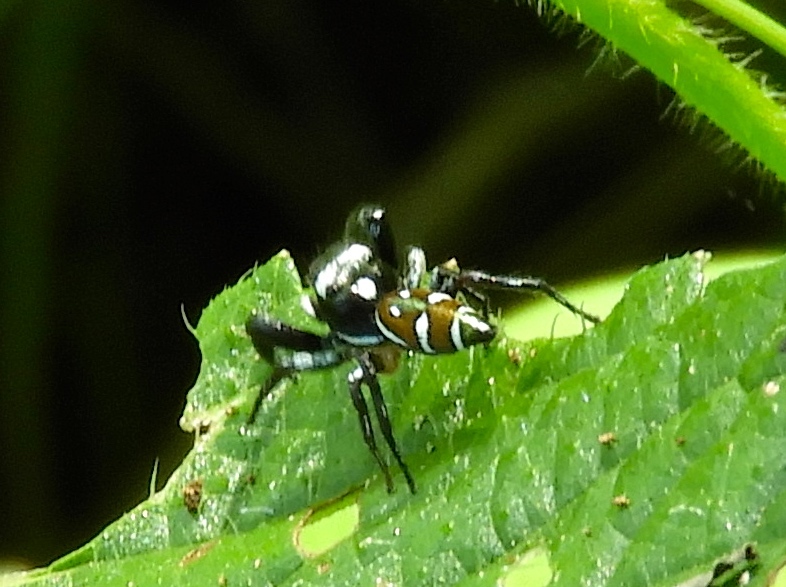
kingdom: Animalia
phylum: Arthropoda
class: Arachnida
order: Araneae
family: Salticidae
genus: Sassacus
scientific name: Sassacus
